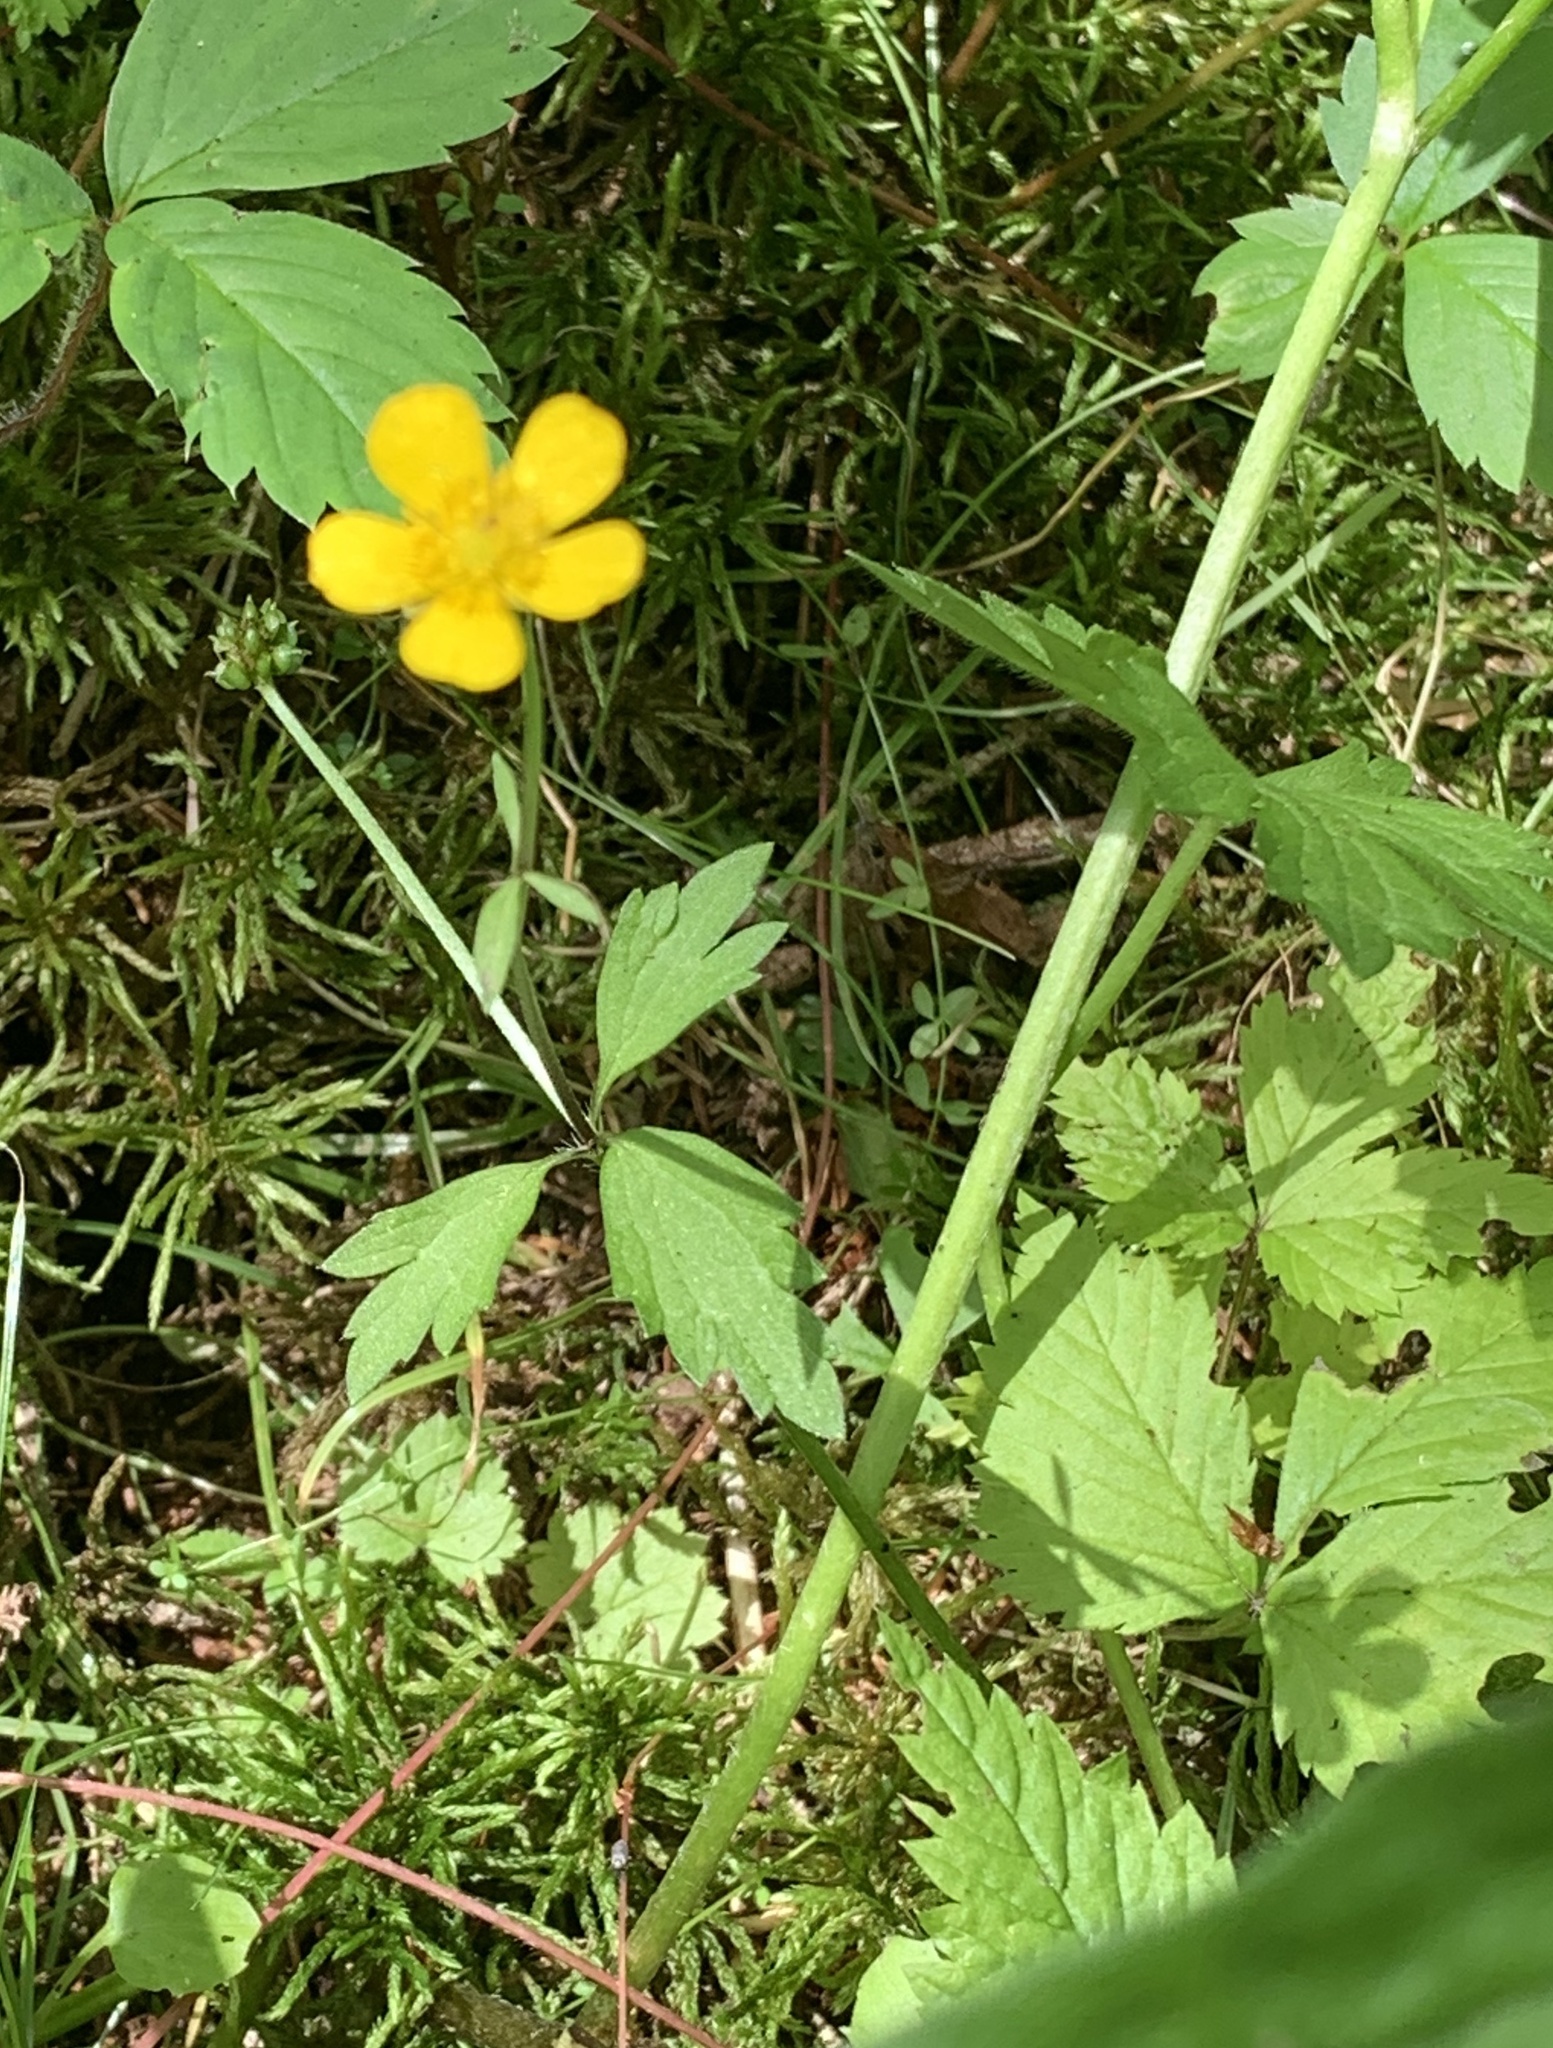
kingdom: Plantae
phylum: Tracheophyta
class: Magnoliopsida
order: Ranunculales
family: Ranunculaceae
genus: Ranunculus
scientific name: Ranunculus repens
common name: Creeping buttercup
